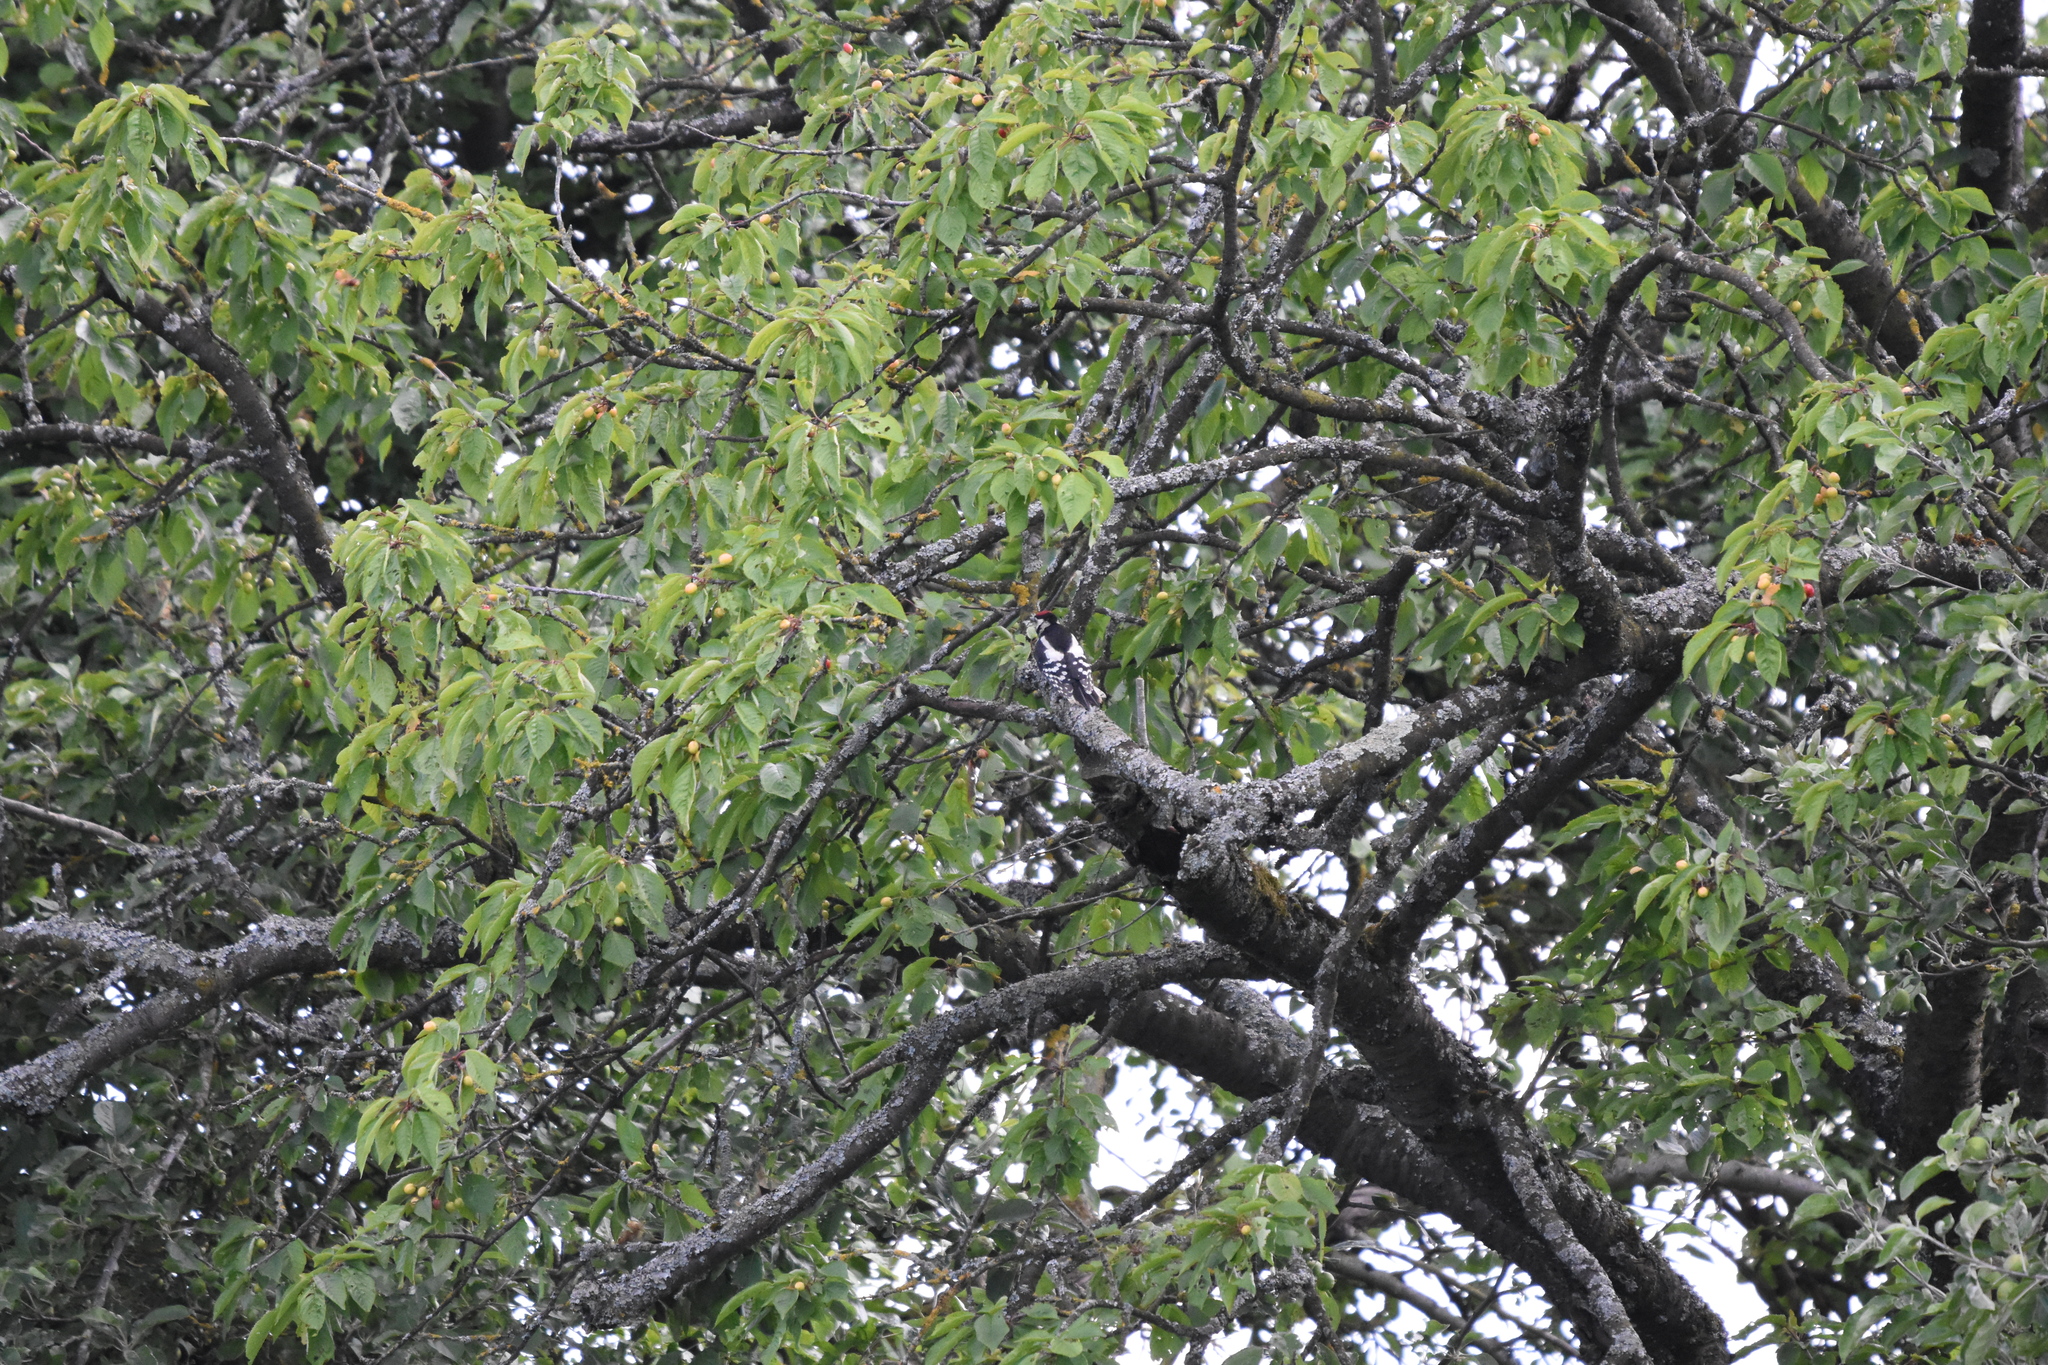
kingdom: Animalia
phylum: Chordata
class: Aves
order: Piciformes
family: Picidae
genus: Dendrocopos
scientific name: Dendrocopos major
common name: Great spotted woodpecker
